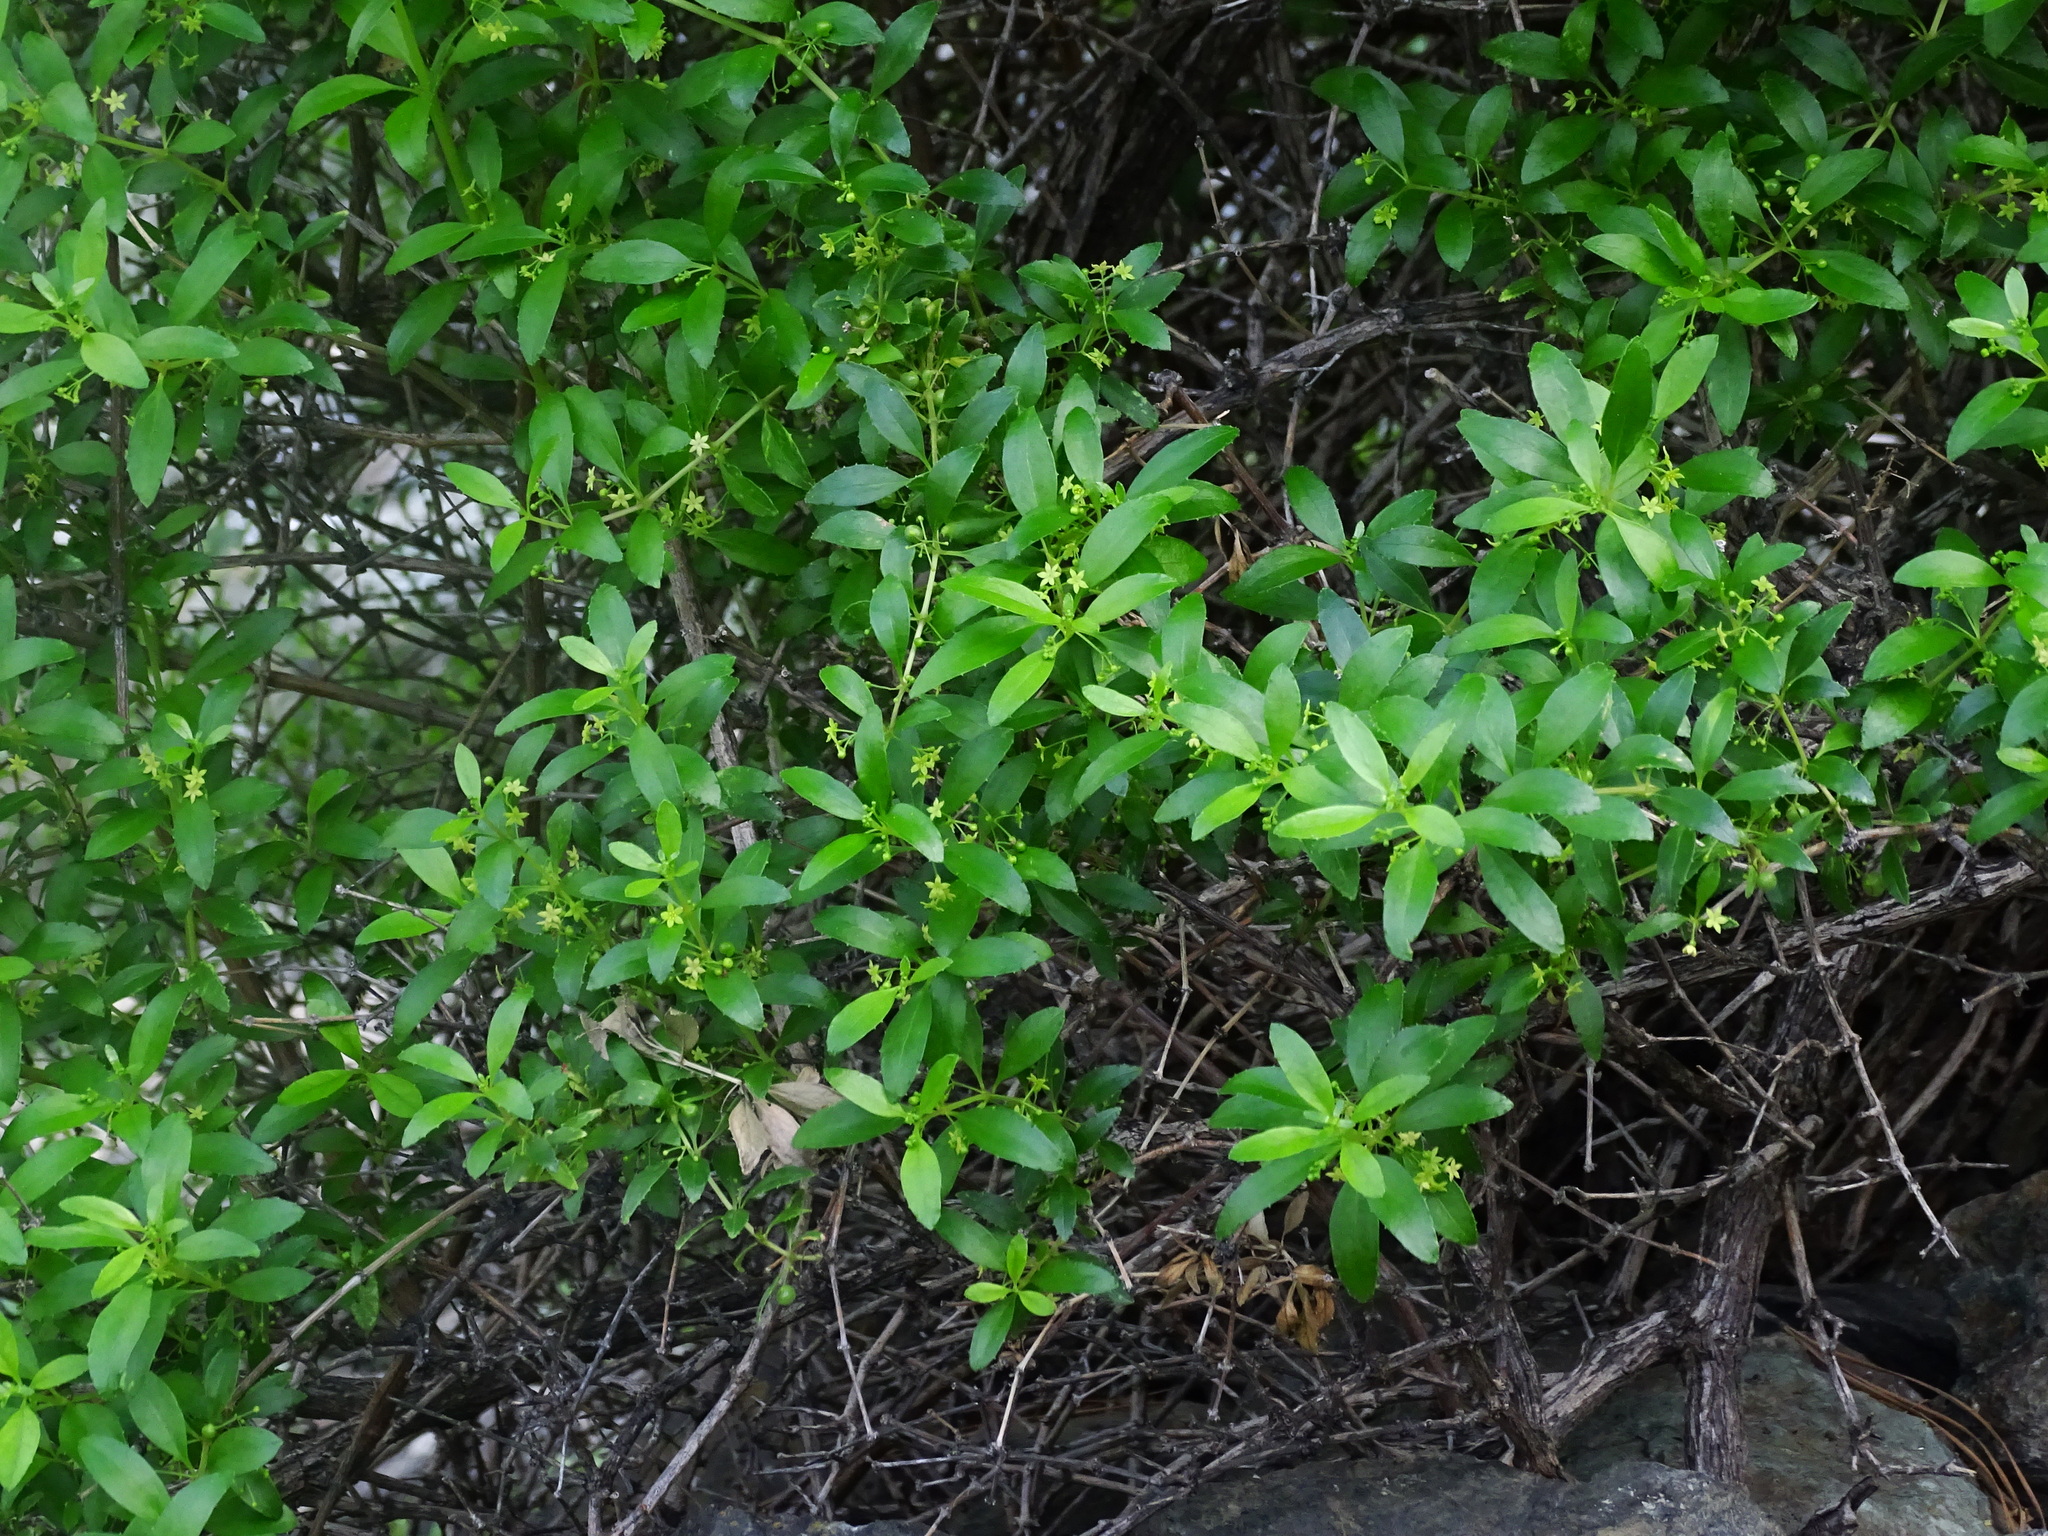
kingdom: Plantae
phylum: Tracheophyta
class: Magnoliopsida
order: Gentianales
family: Rubiaceae
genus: Rubia
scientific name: Rubia fruticosa
